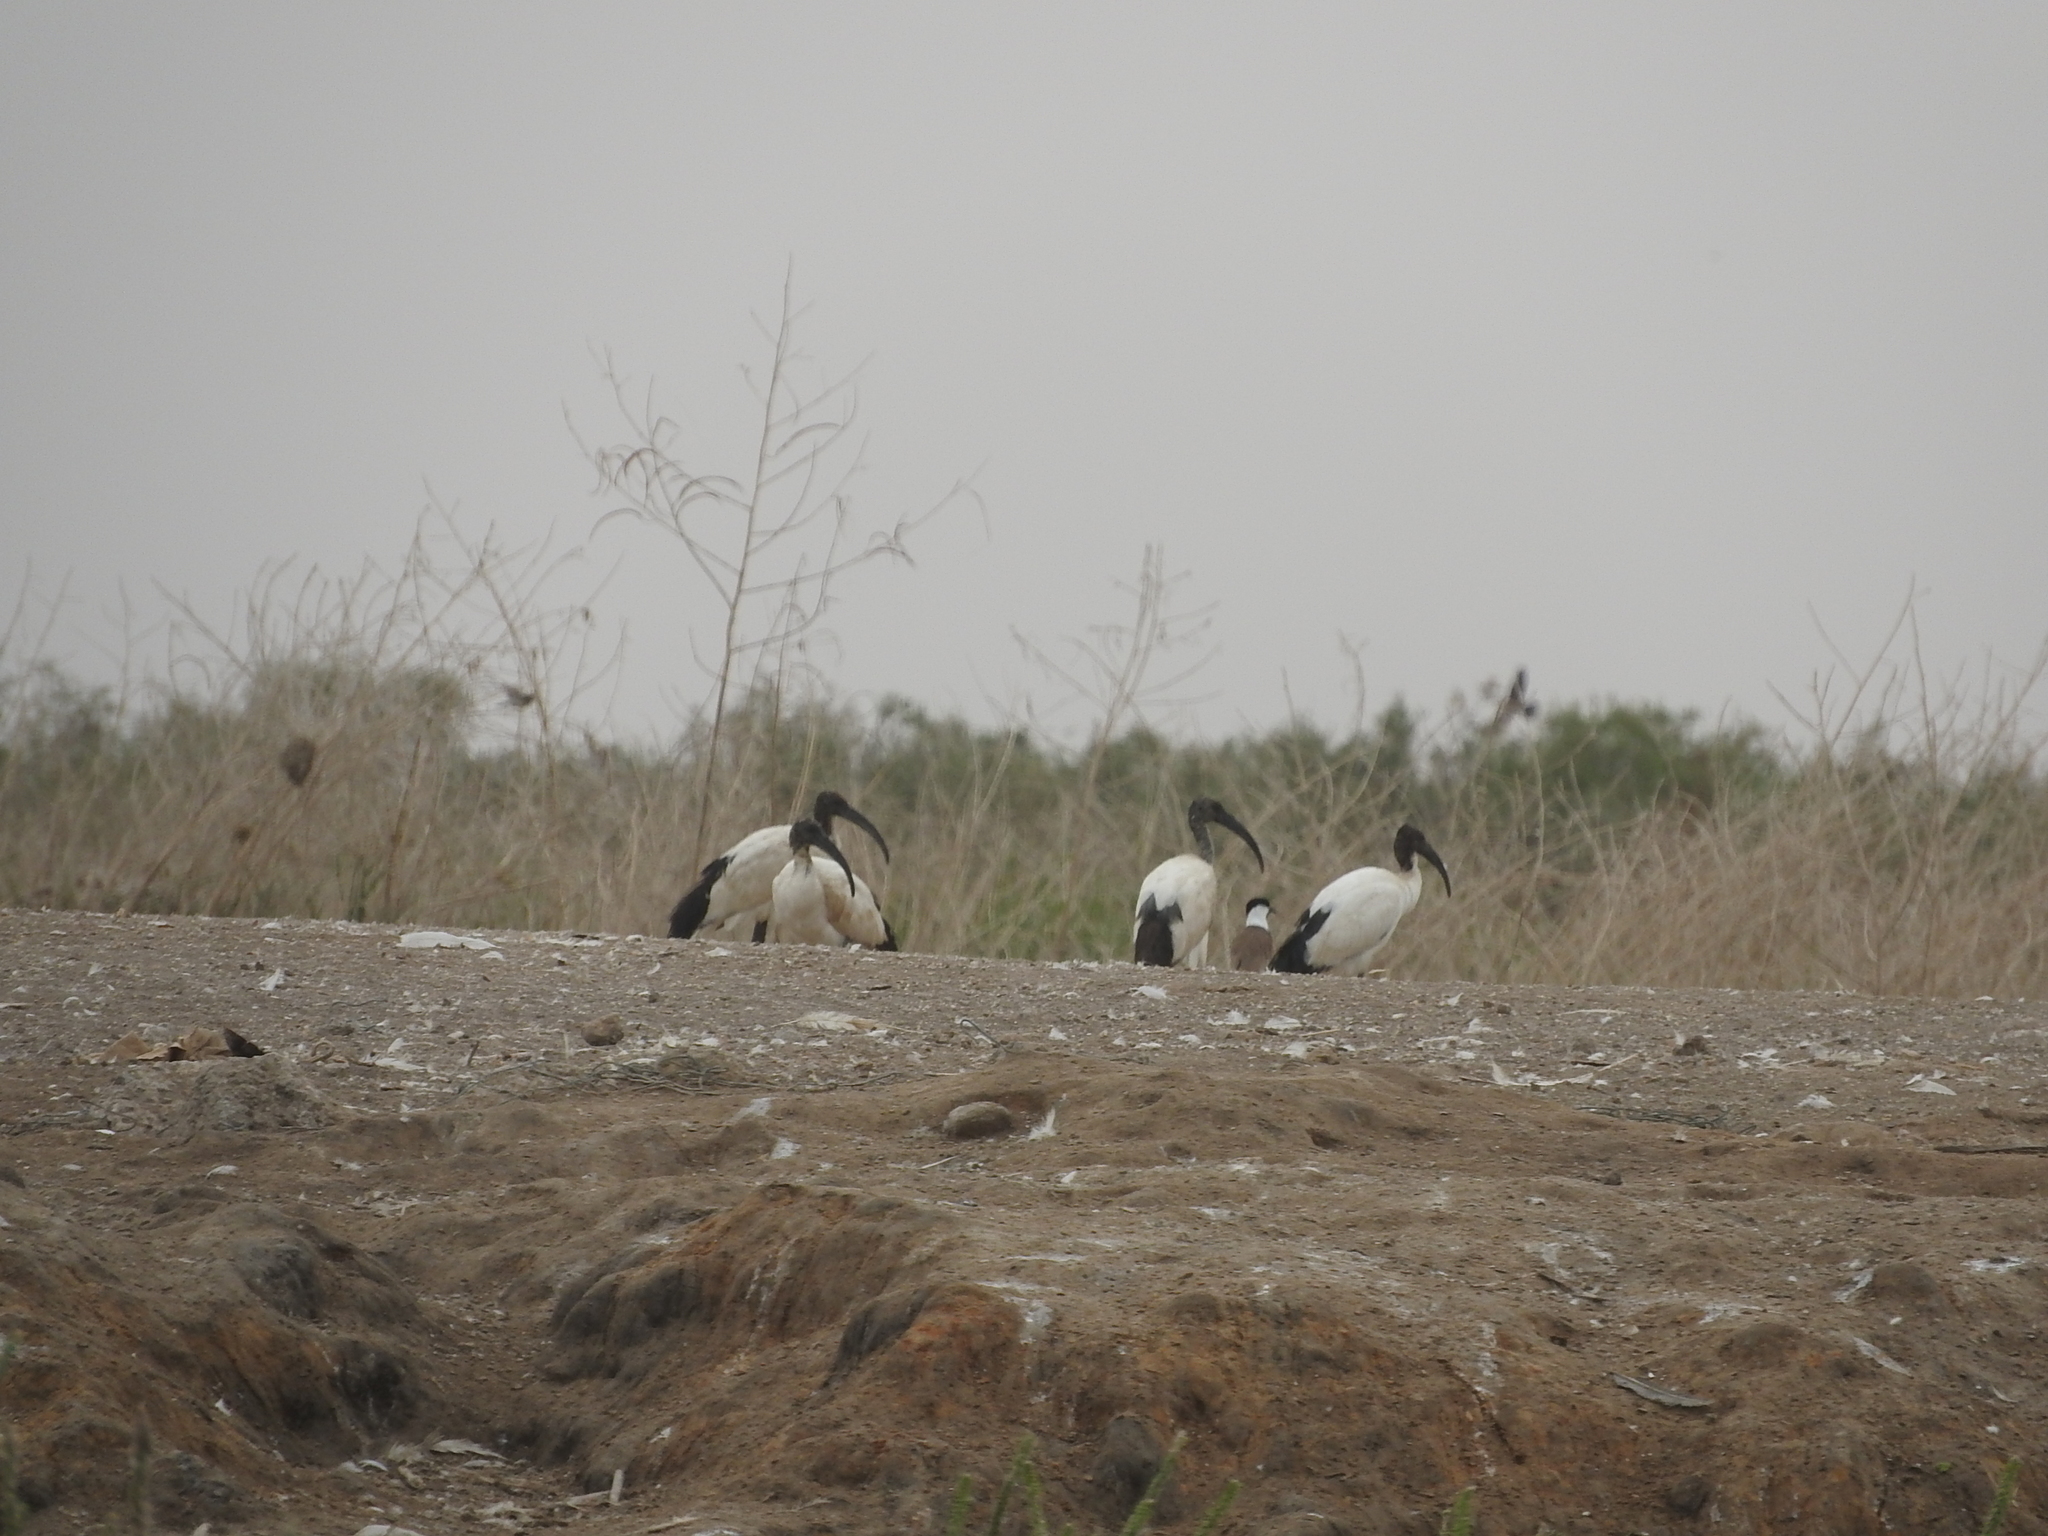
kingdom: Animalia
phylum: Chordata
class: Aves
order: Pelecaniformes
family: Threskiornithidae
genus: Threskiornis
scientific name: Threskiornis aethiopicus
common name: Sacred ibis
